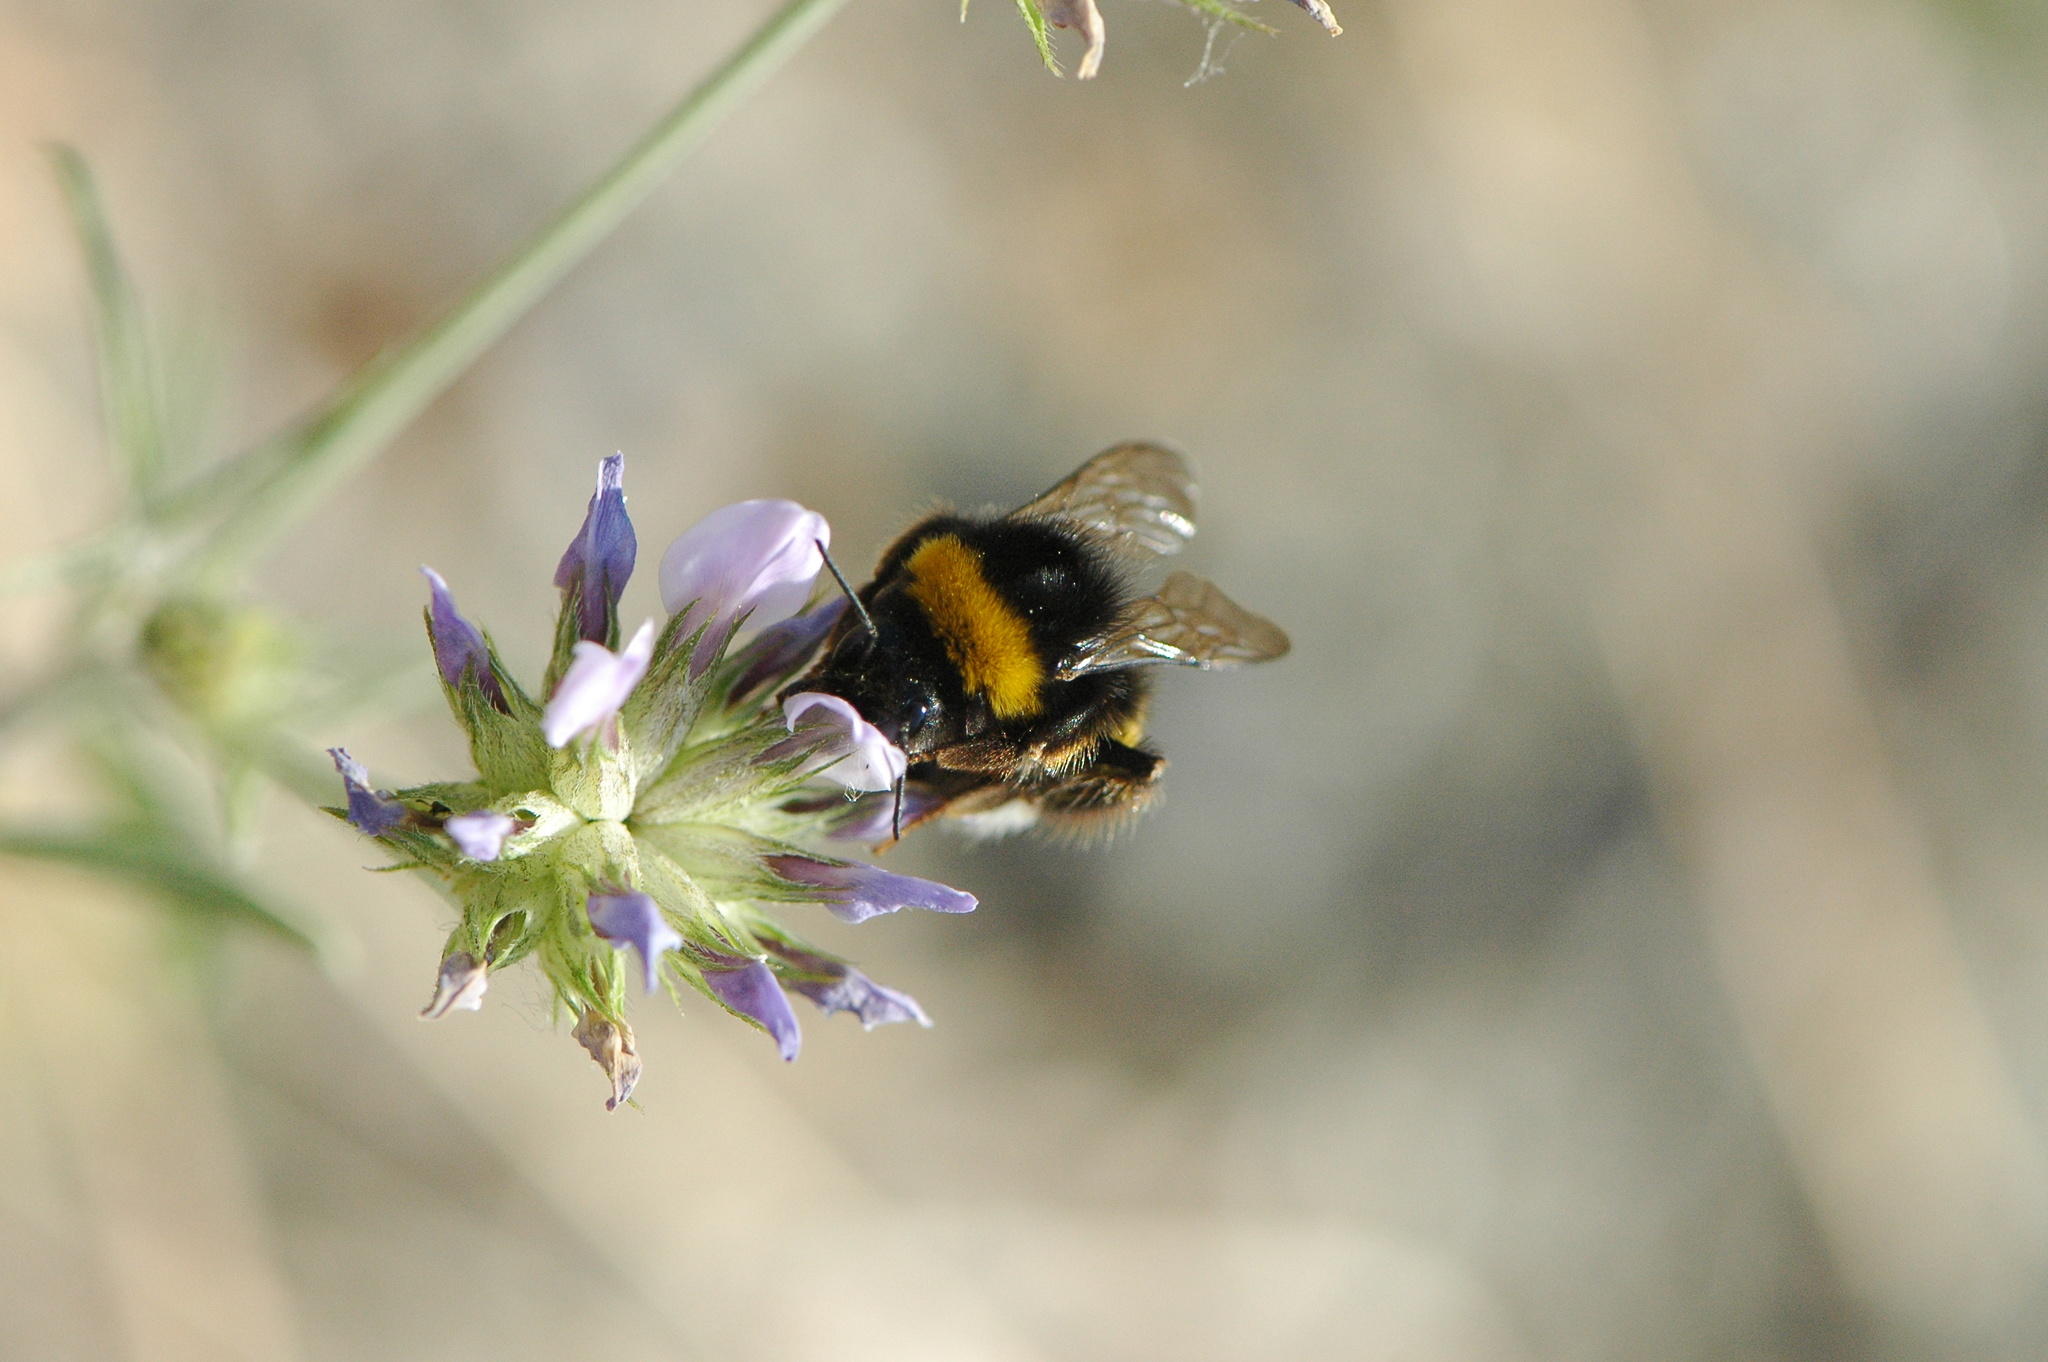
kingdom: Animalia
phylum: Arthropoda
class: Insecta
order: Hymenoptera
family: Apidae
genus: Bombus
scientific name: Bombus terrestris
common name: Buff-tailed bumblebee
